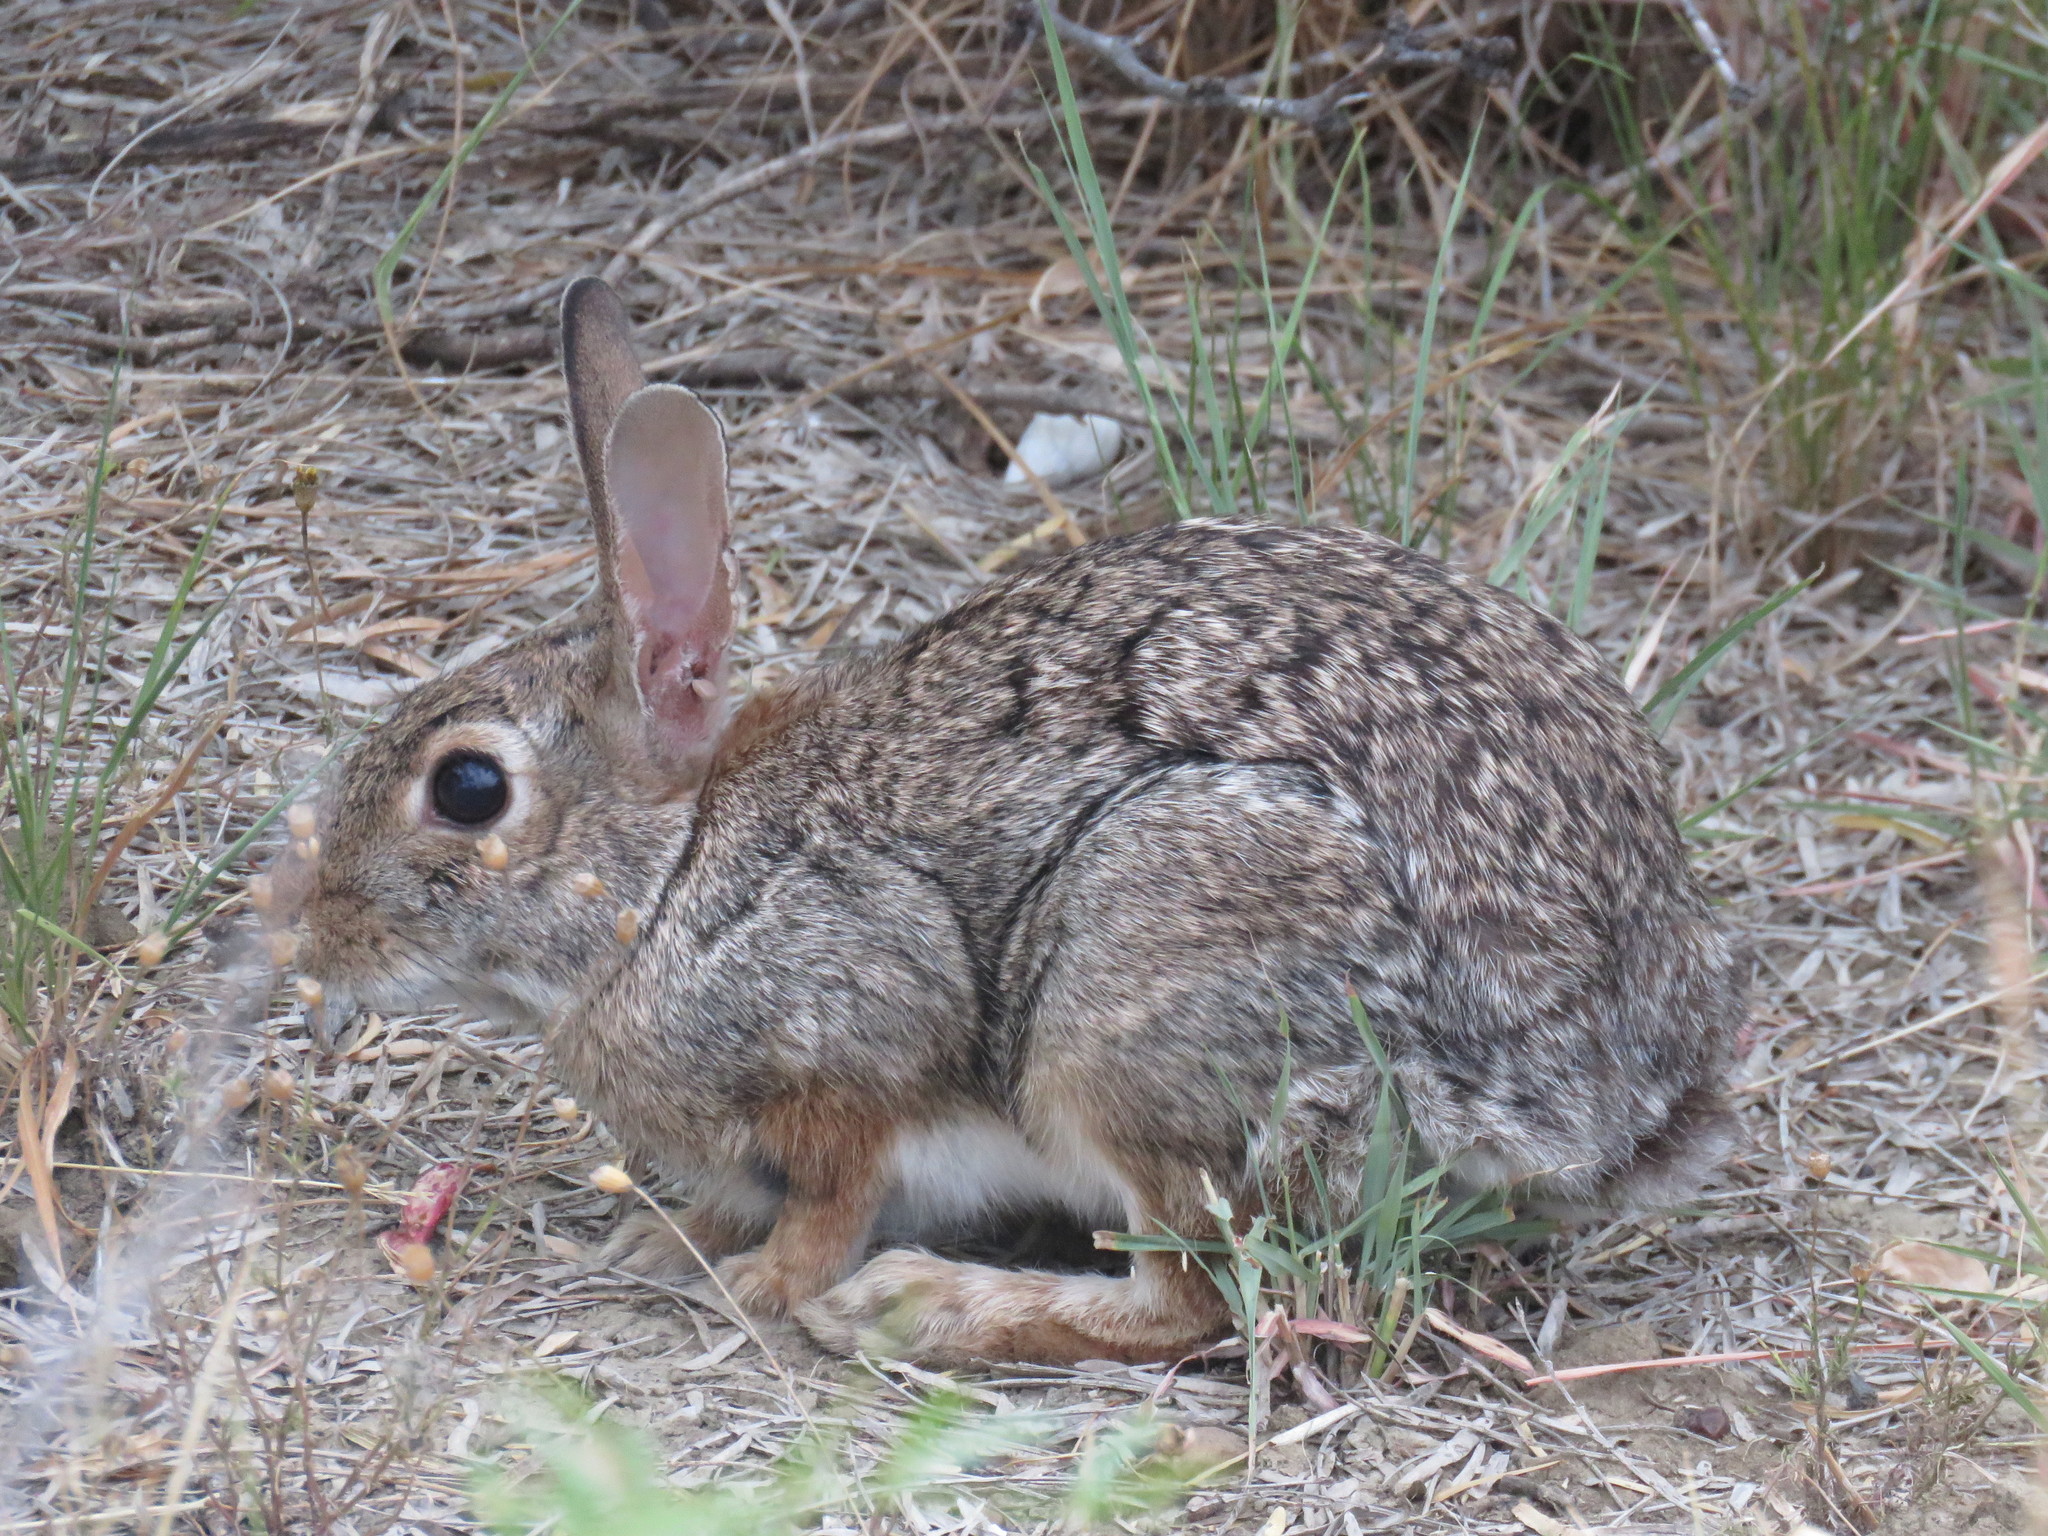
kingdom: Animalia
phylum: Chordata
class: Mammalia
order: Lagomorpha
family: Leporidae
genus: Sylvilagus
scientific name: Sylvilagus floridanus
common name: Eastern cottontail
